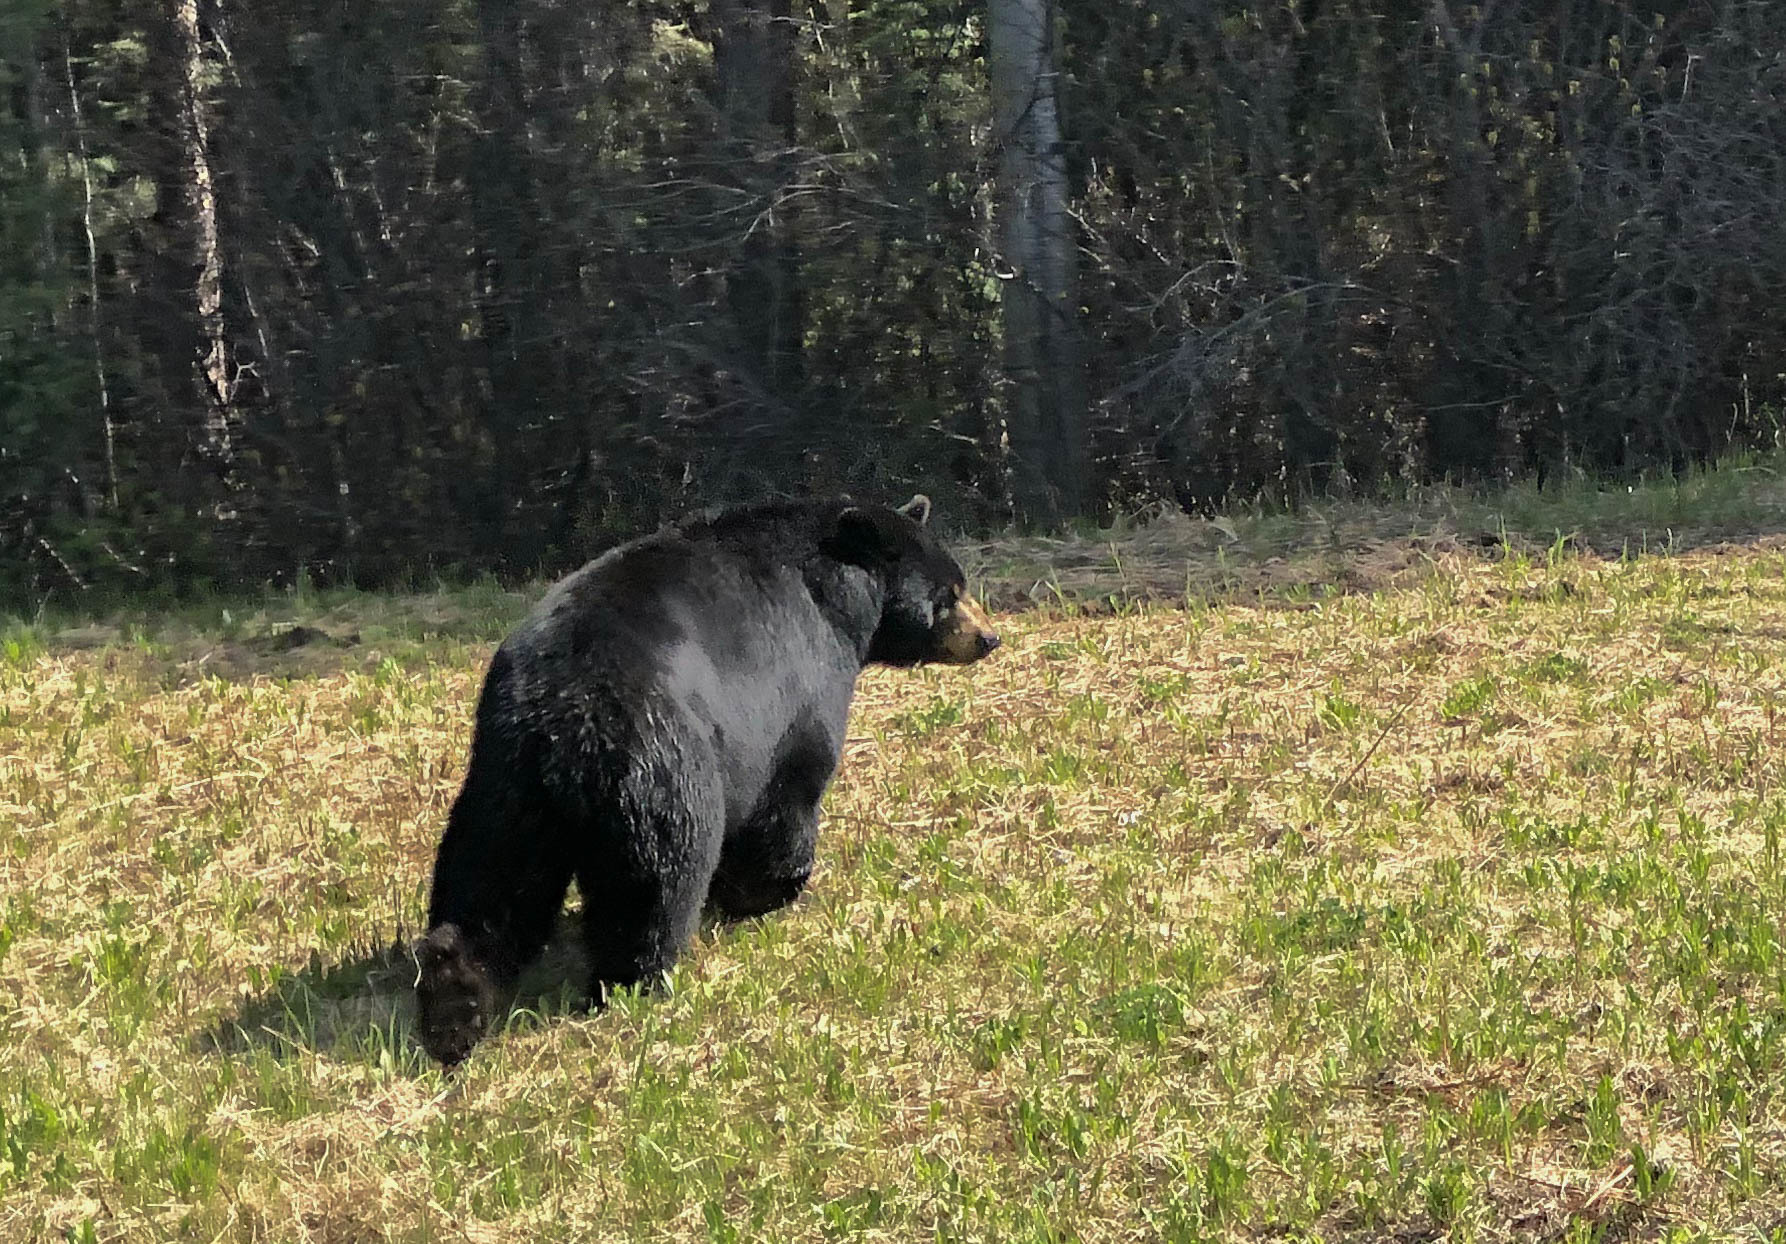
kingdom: Animalia
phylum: Chordata
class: Mammalia
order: Carnivora
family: Ursidae
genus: Ursus
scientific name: Ursus americanus
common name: American black bear
